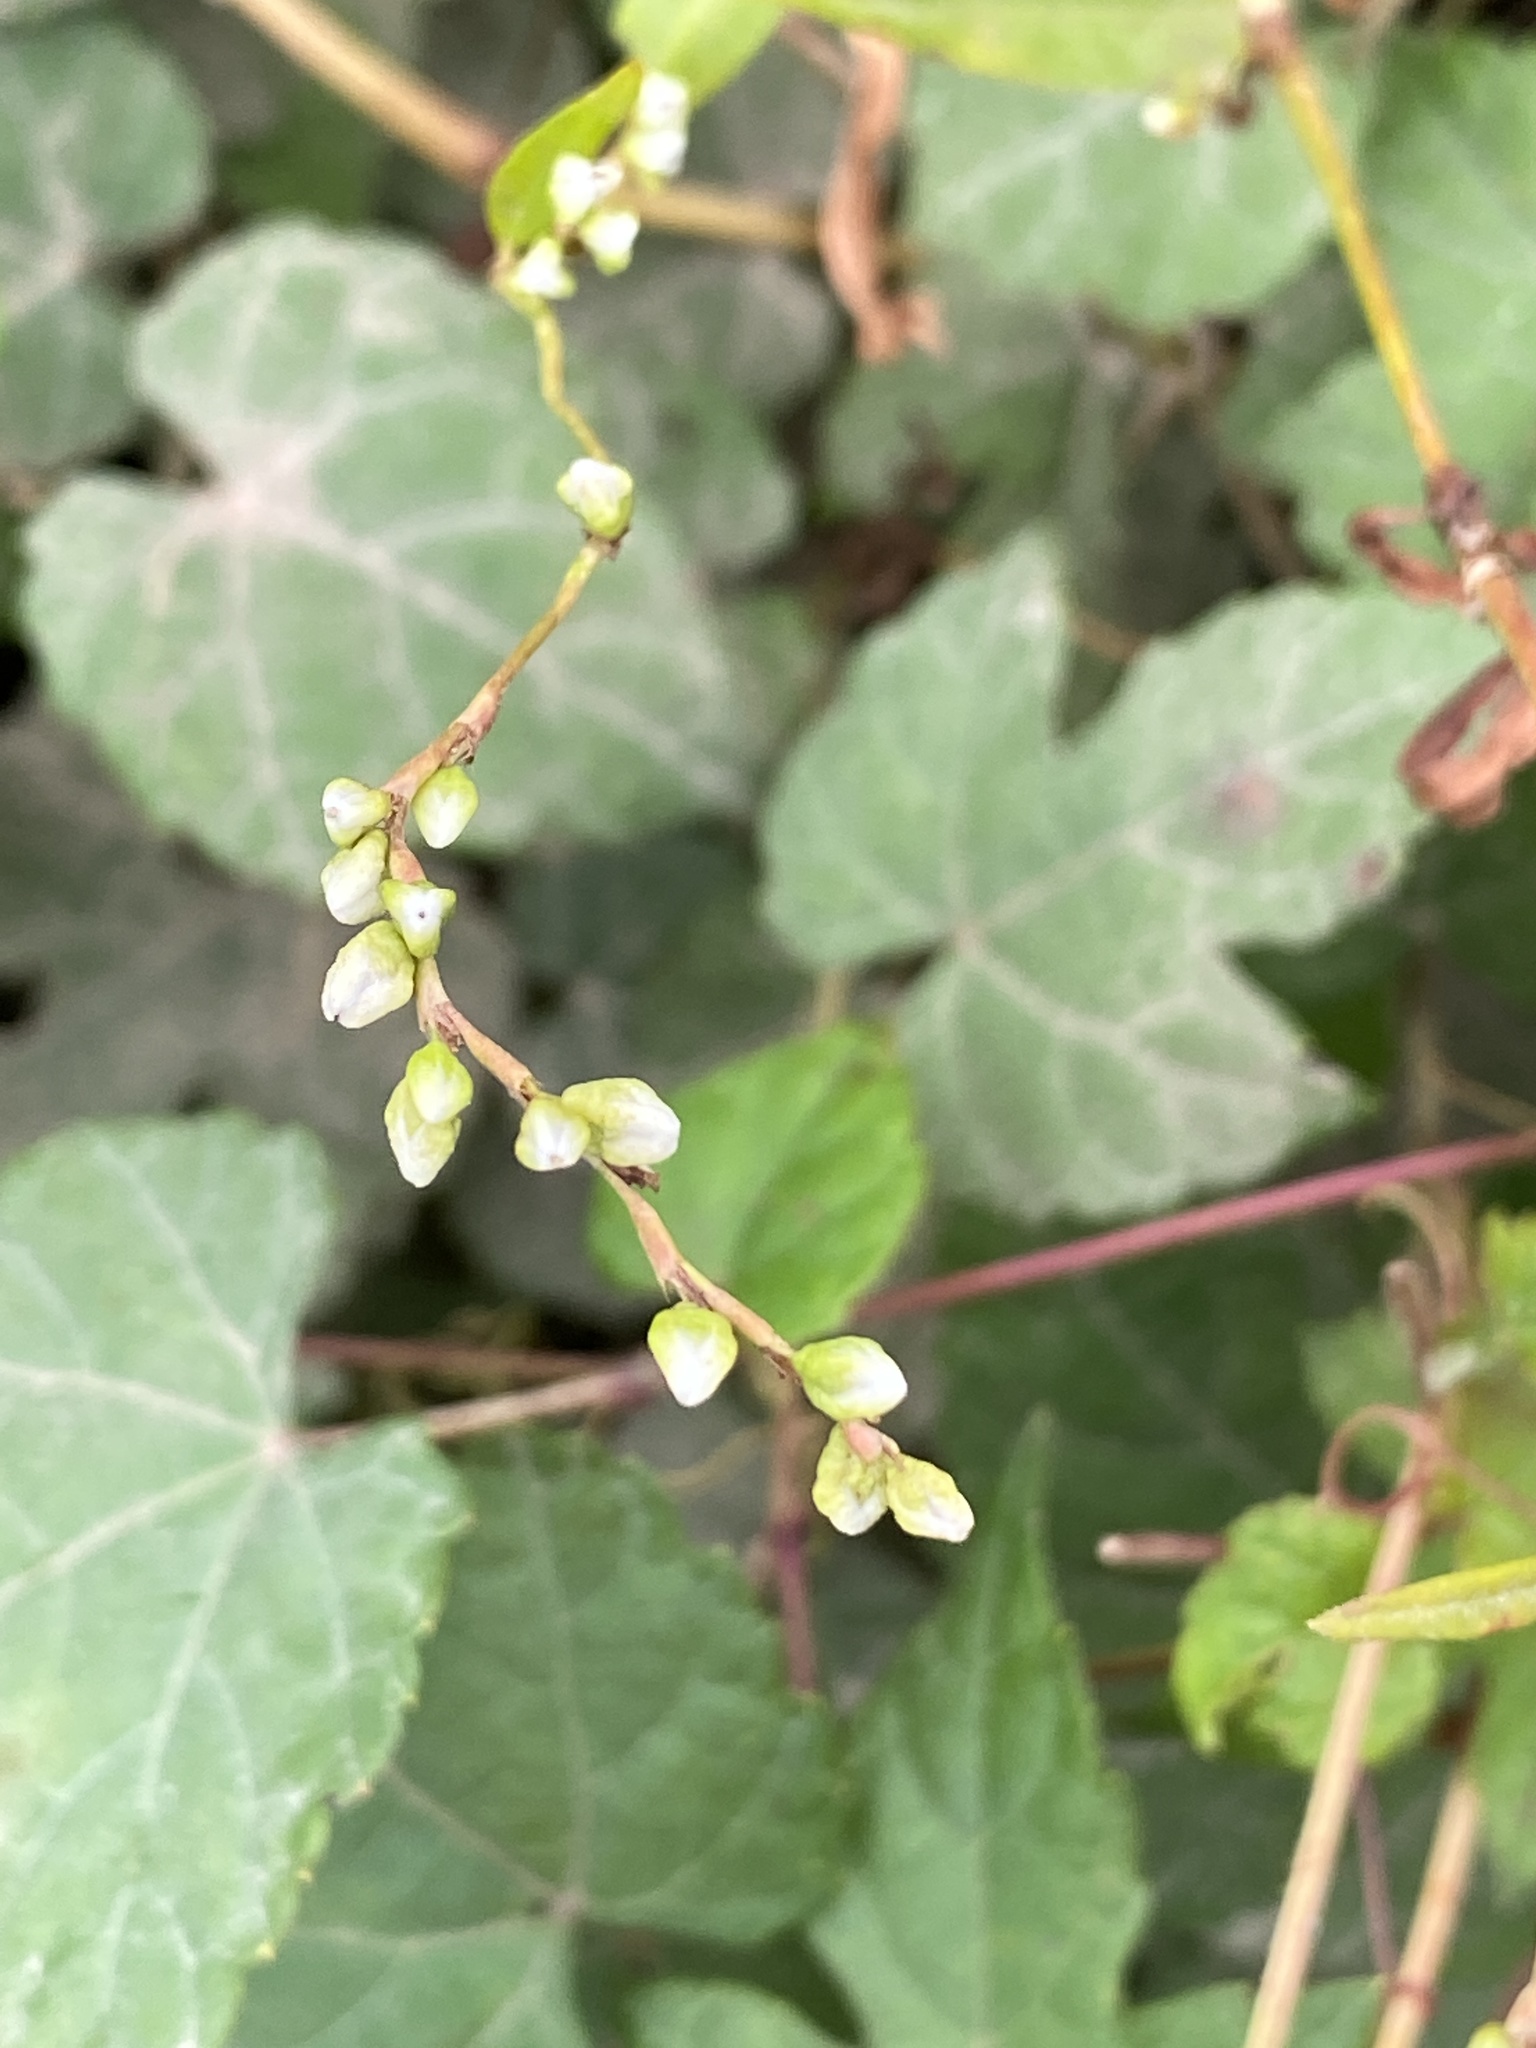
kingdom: Plantae
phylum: Tracheophyta
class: Magnoliopsida
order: Caryophyllales
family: Polygonaceae
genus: Persicaria
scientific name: Persicaria punctata
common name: Dotted smartweed
